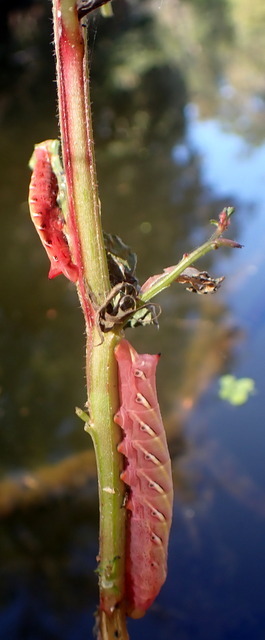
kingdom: Animalia
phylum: Arthropoda
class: Insecta
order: Lepidoptera
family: Sphingidae
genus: Eumorpha
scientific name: Eumorpha fasciatus
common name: Banded sphinx
